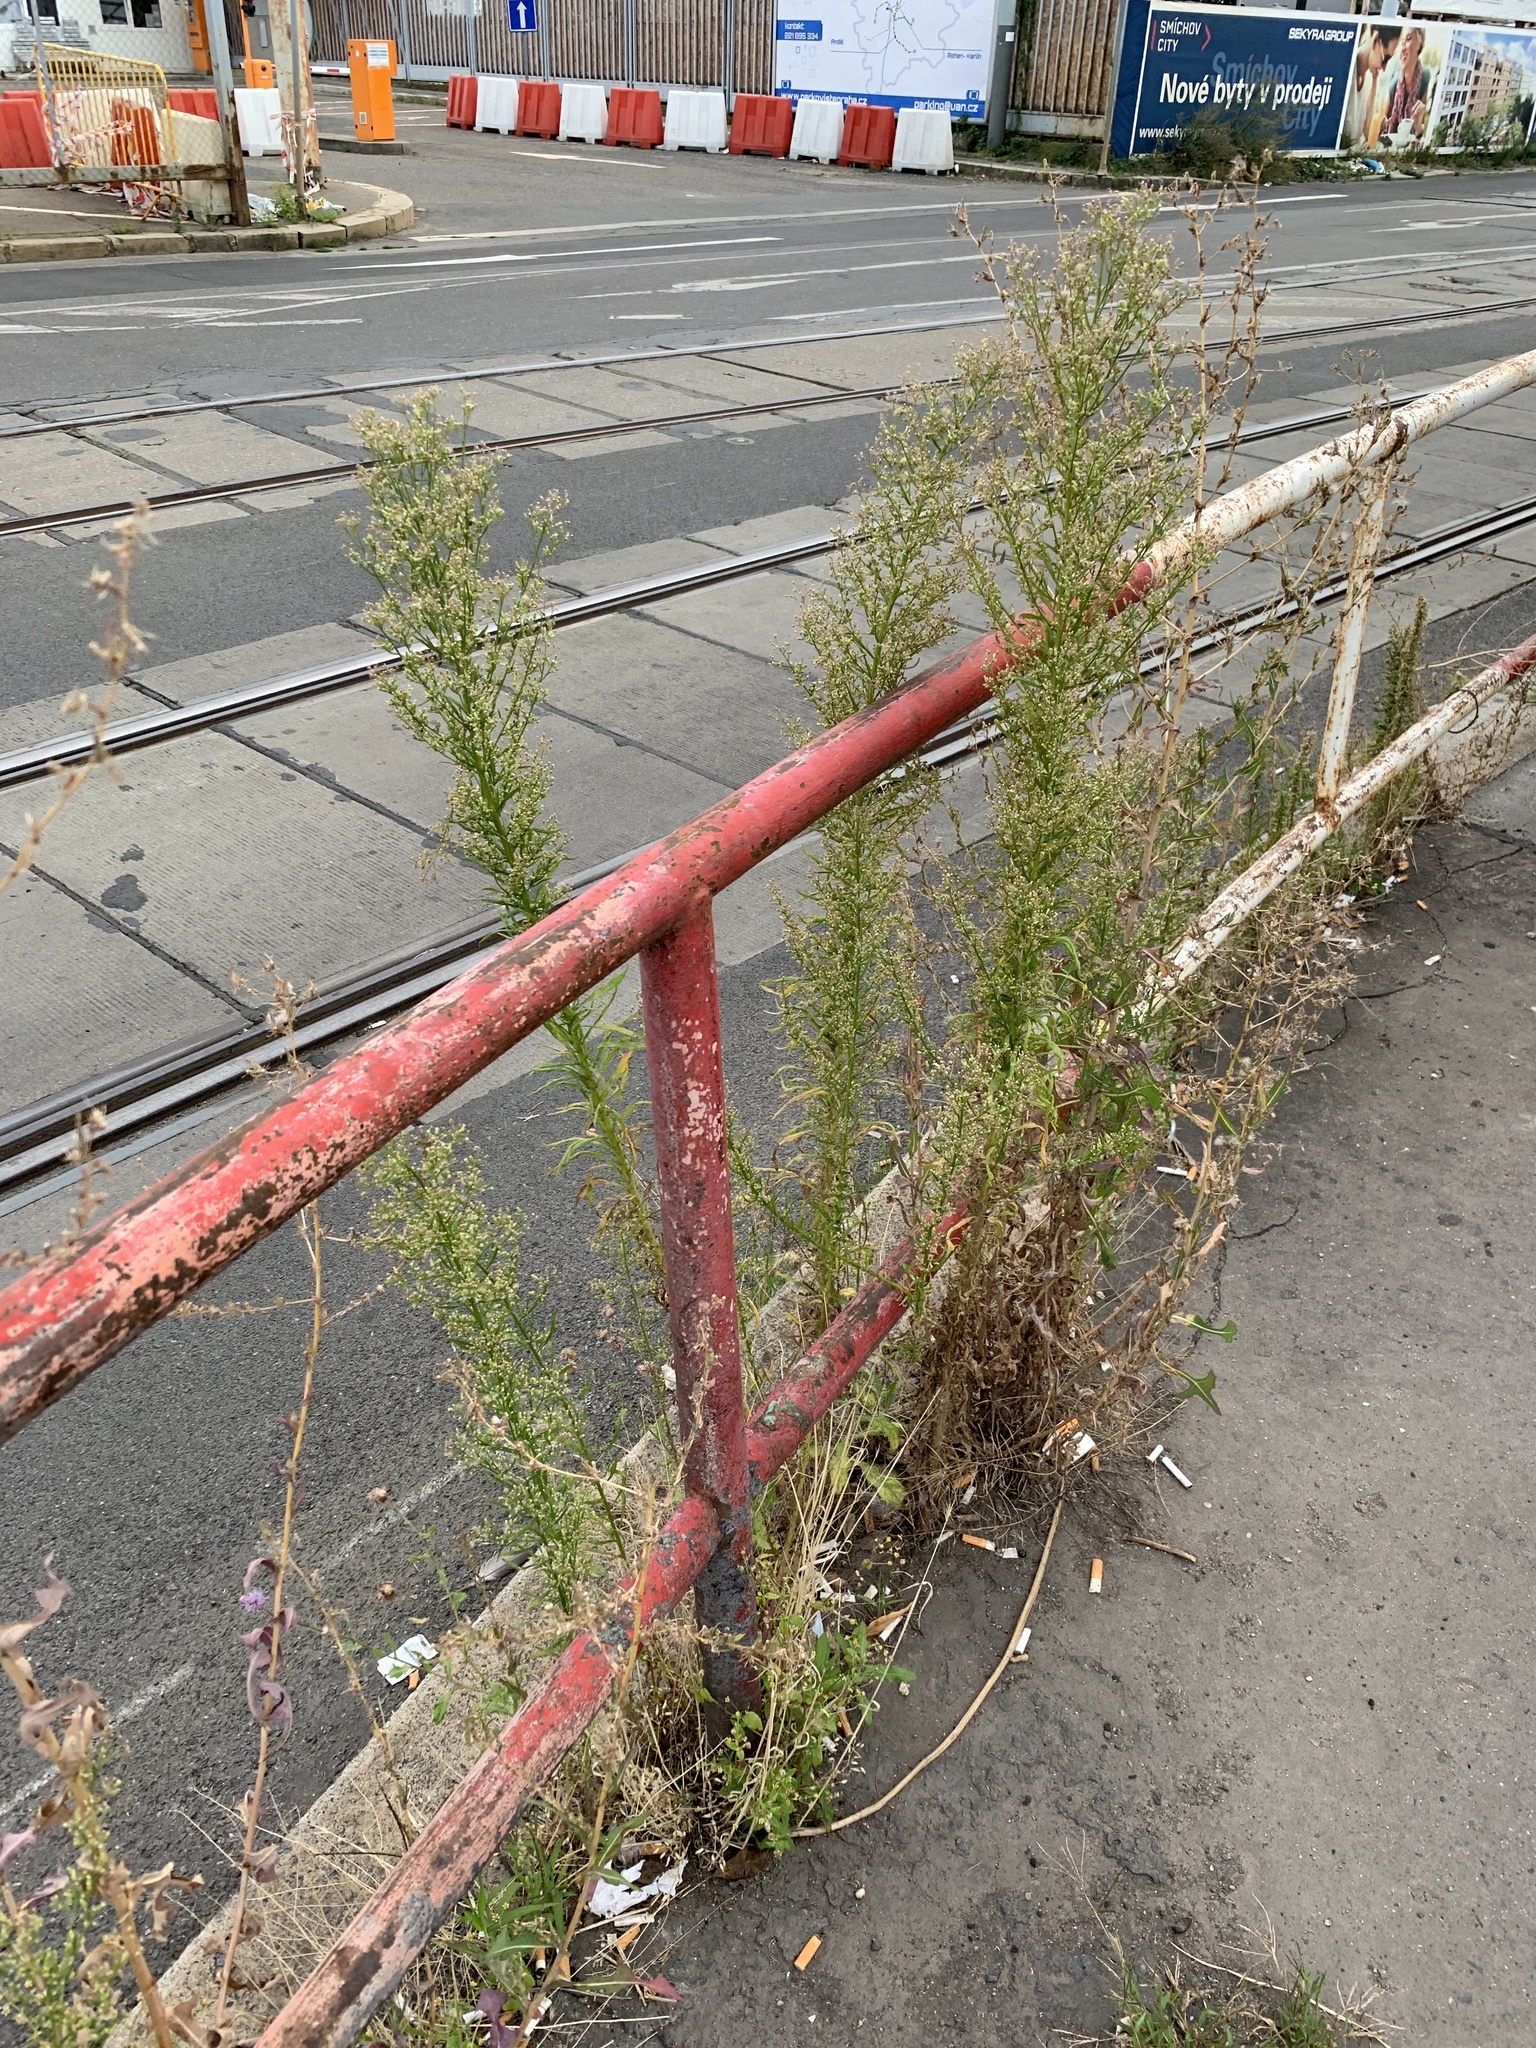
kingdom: Plantae
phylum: Tracheophyta
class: Magnoliopsida
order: Asterales
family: Asteraceae
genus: Erigeron
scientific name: Erigeron canadensis
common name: Canadian fleabane
